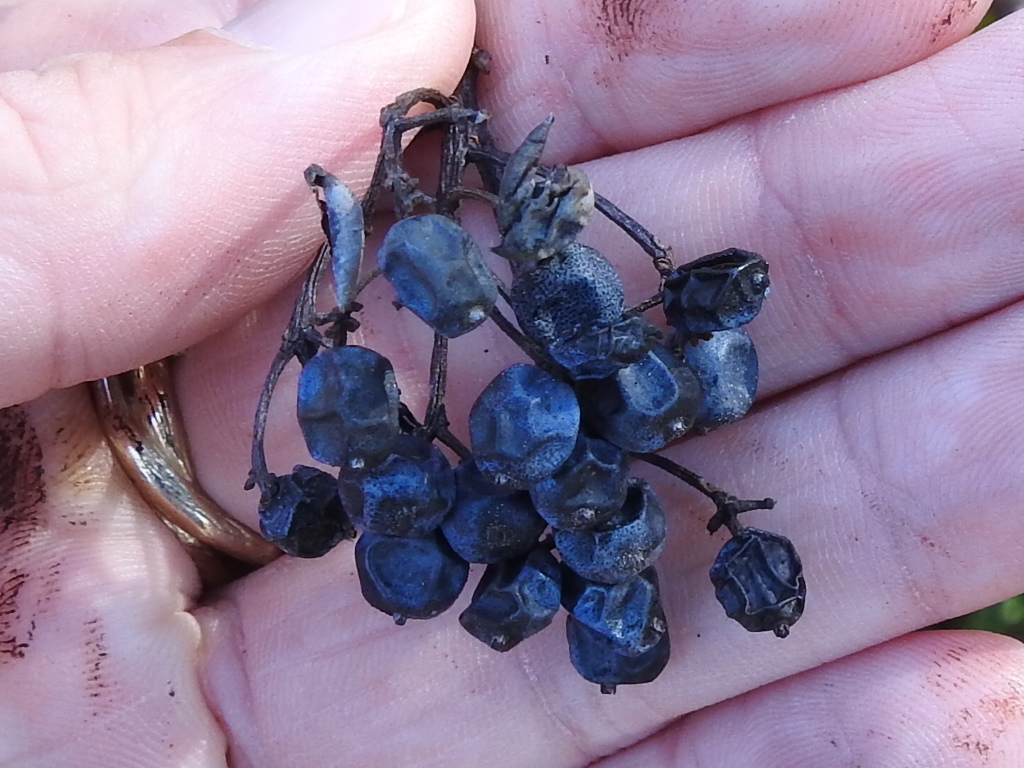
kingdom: Plantae
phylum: Tracheophyta
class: Magnoliopsida
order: Dipsacales
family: Viburnaceae
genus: Viburnum
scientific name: Viburnum nudum
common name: Possum haw
